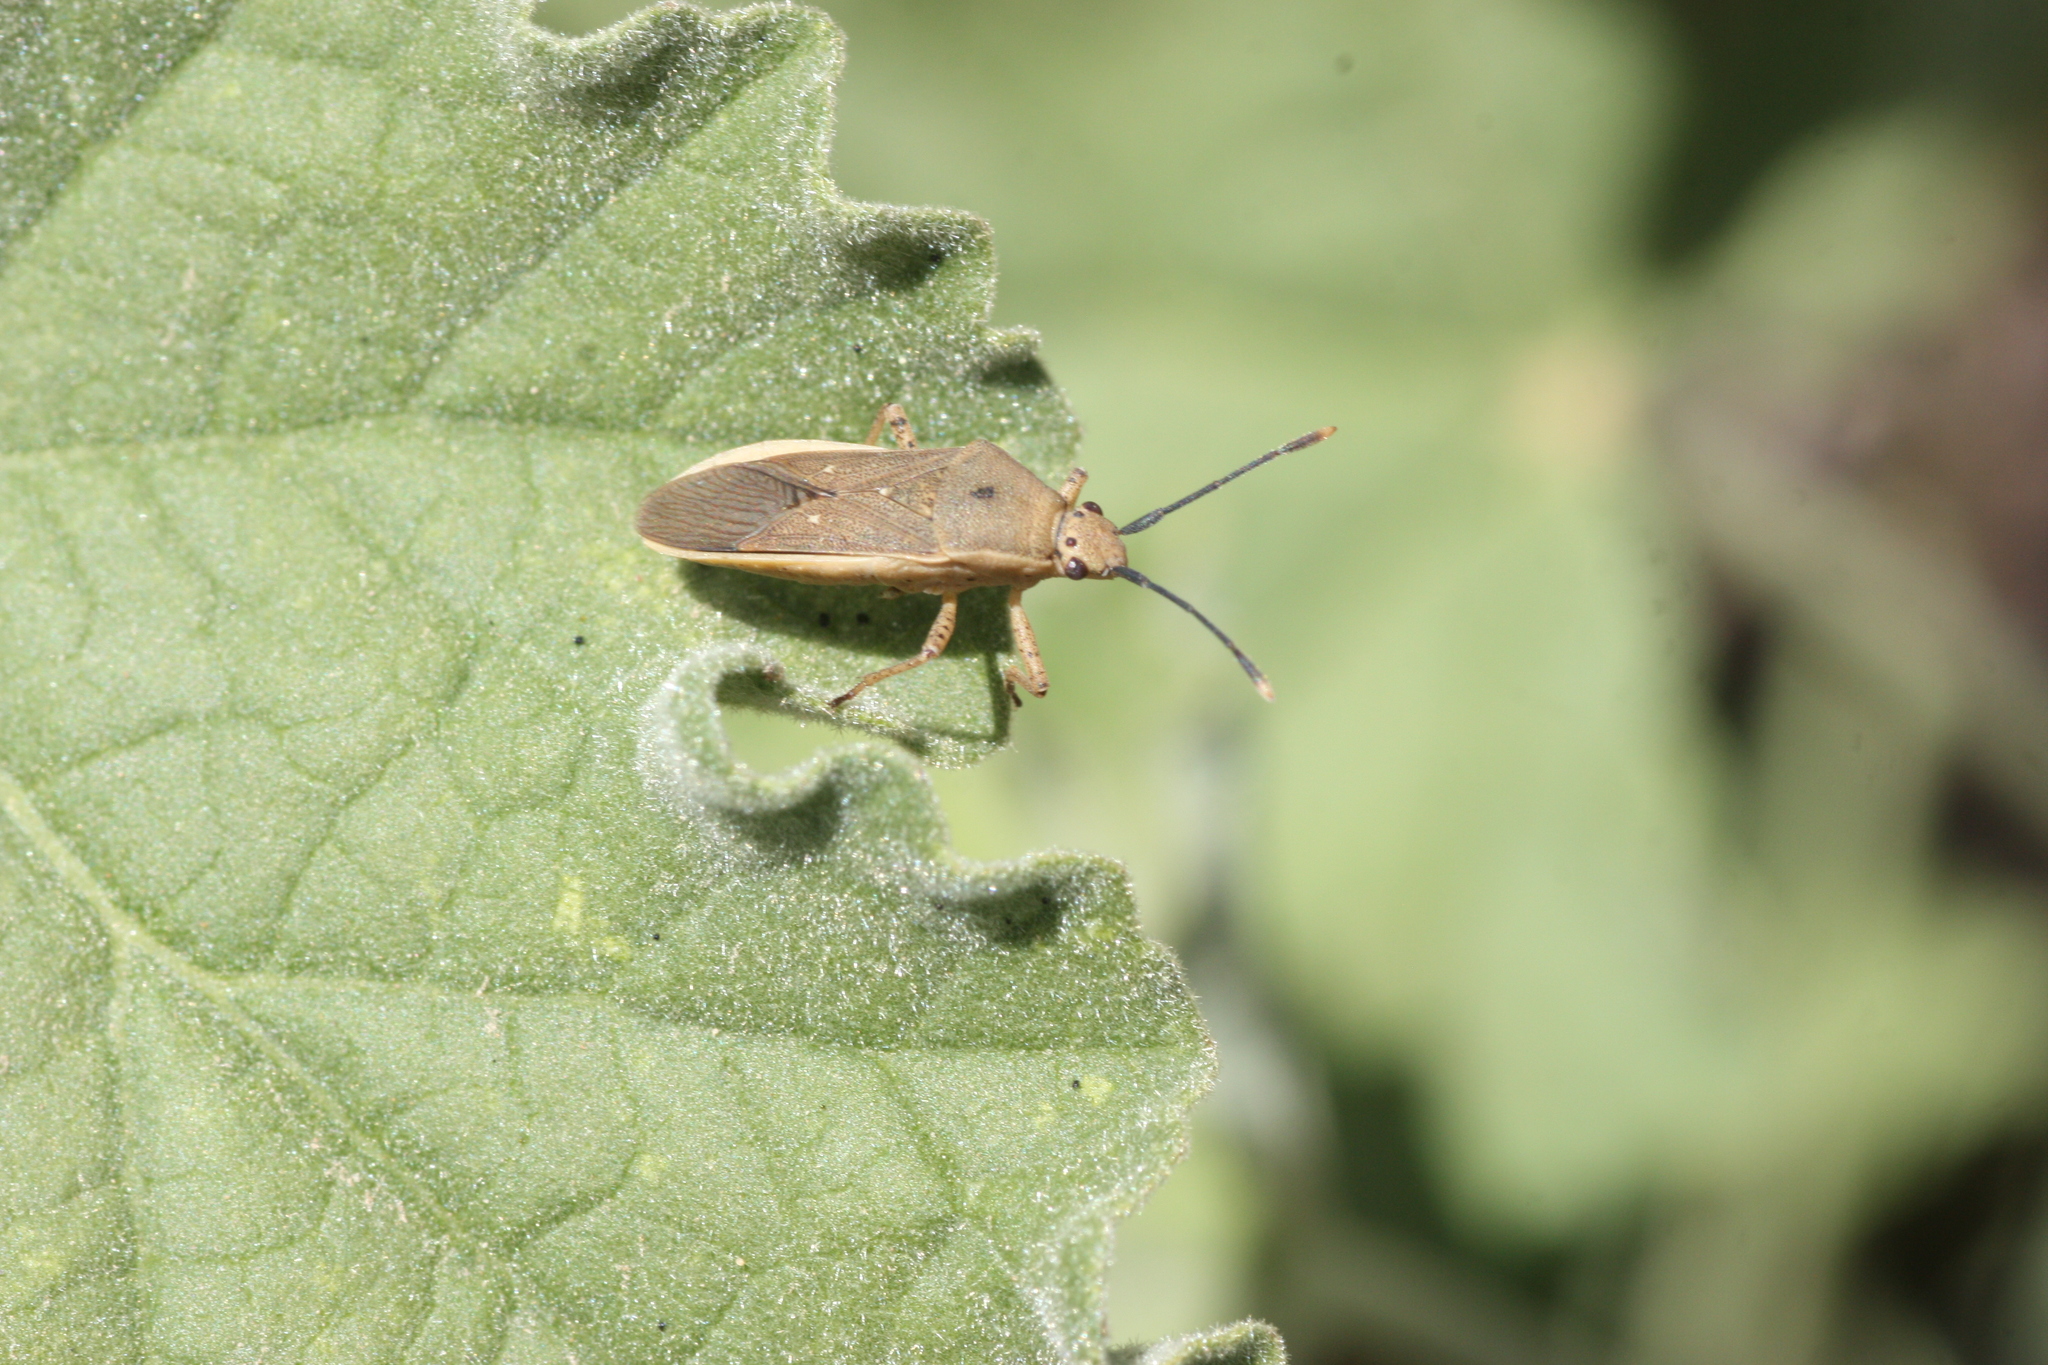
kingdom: Animalia
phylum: Arthropoda
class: Insecta
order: Hemiptera
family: Coreidae
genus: Catorhintha
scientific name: Catorhintha selector
